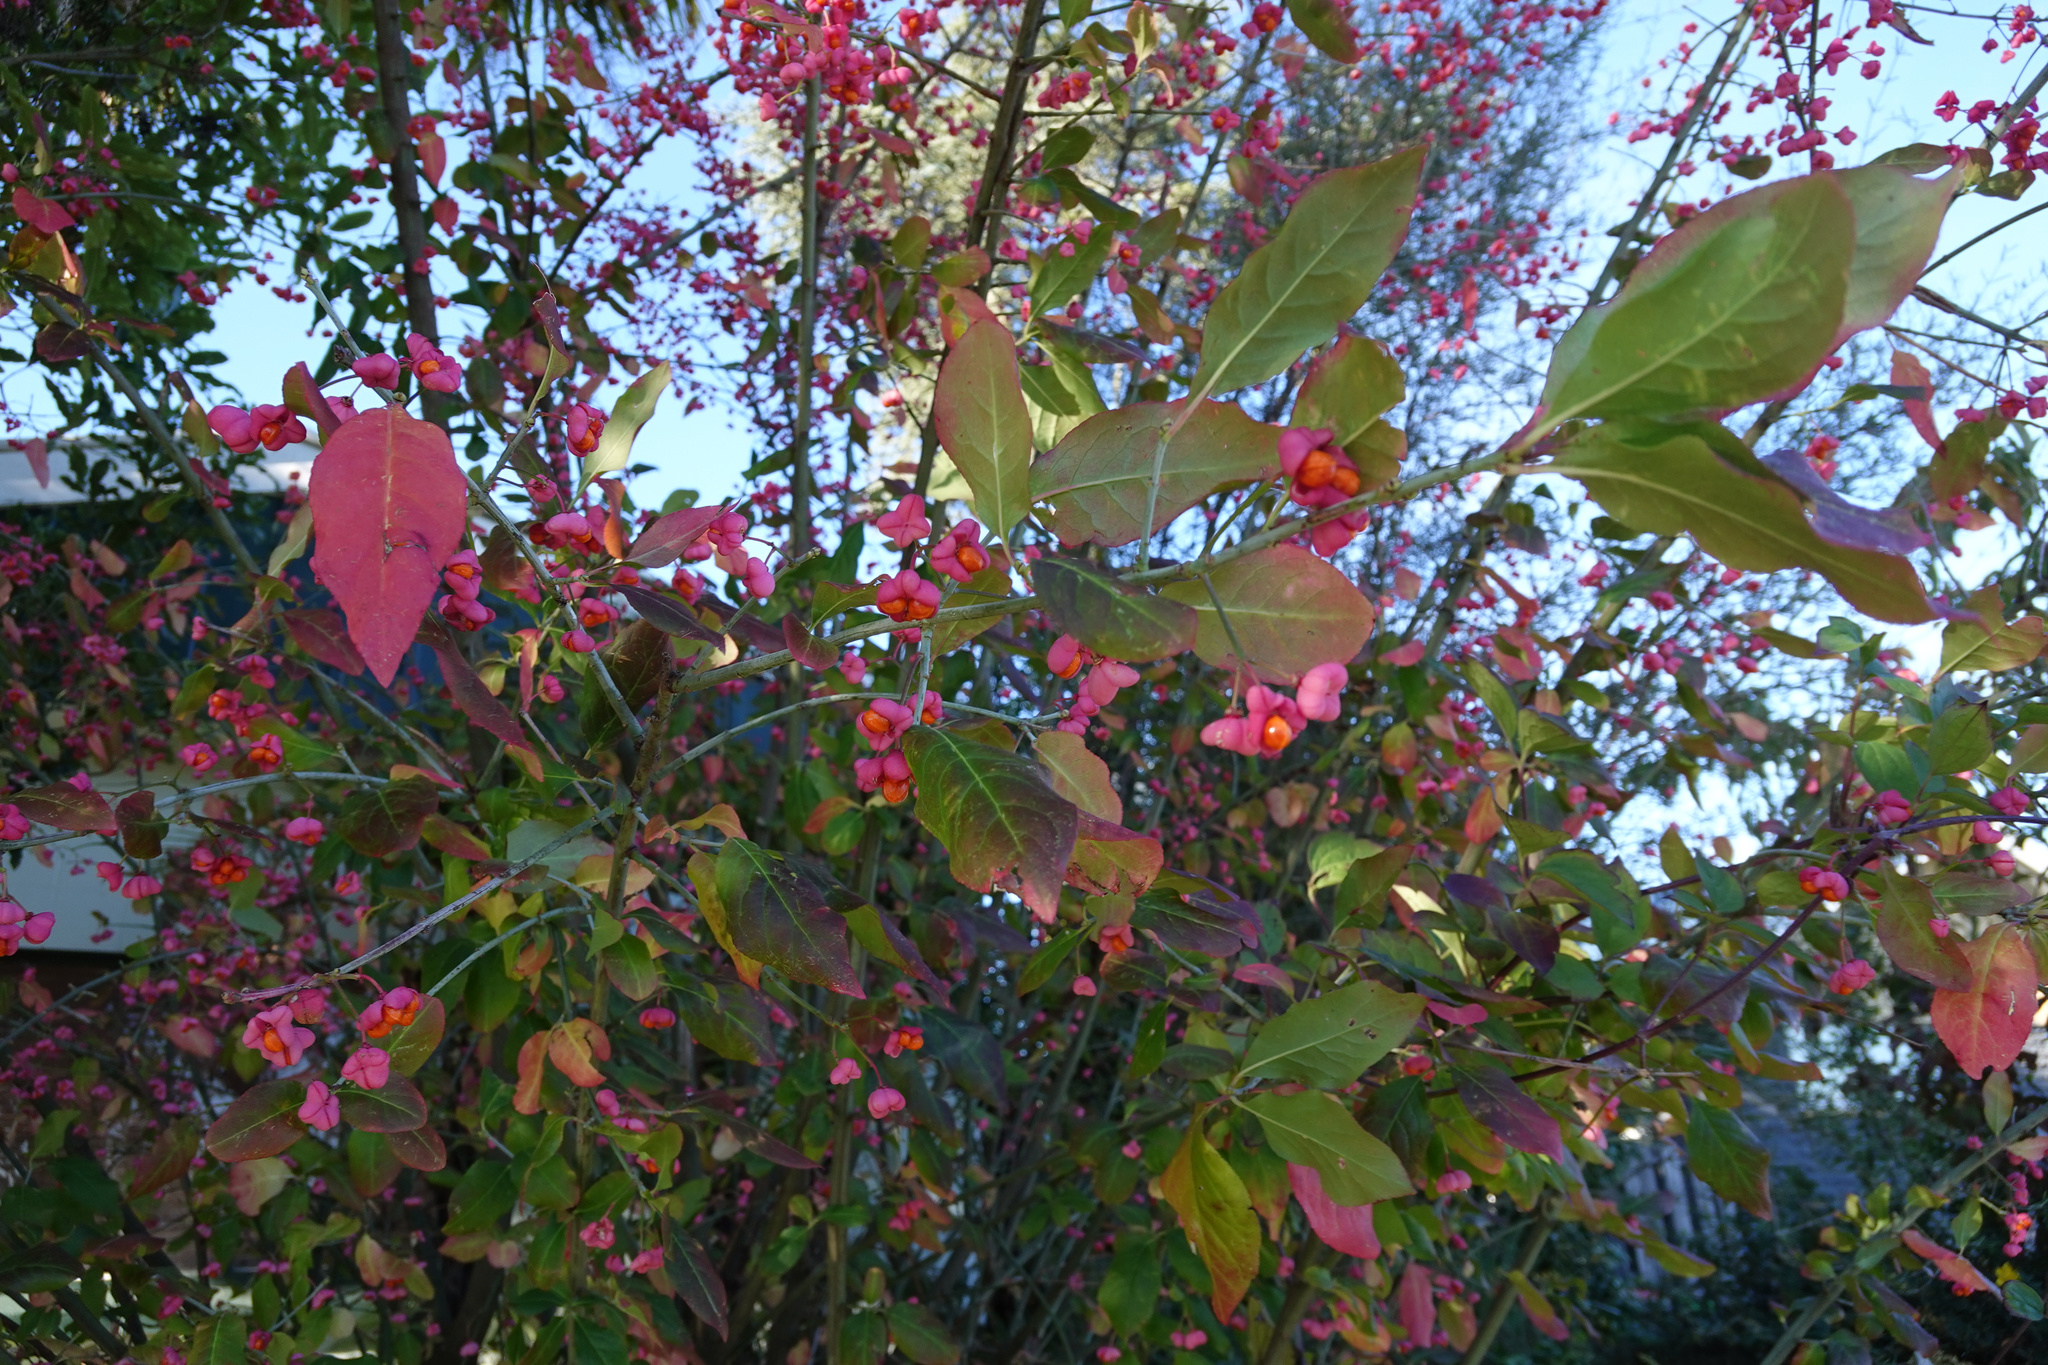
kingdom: Plantae
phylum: Tracheophyta
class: Magnoliopsida
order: Celastrales
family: Celastraceae
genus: Euonymus
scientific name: Euonymus europaeus
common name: Spindle
